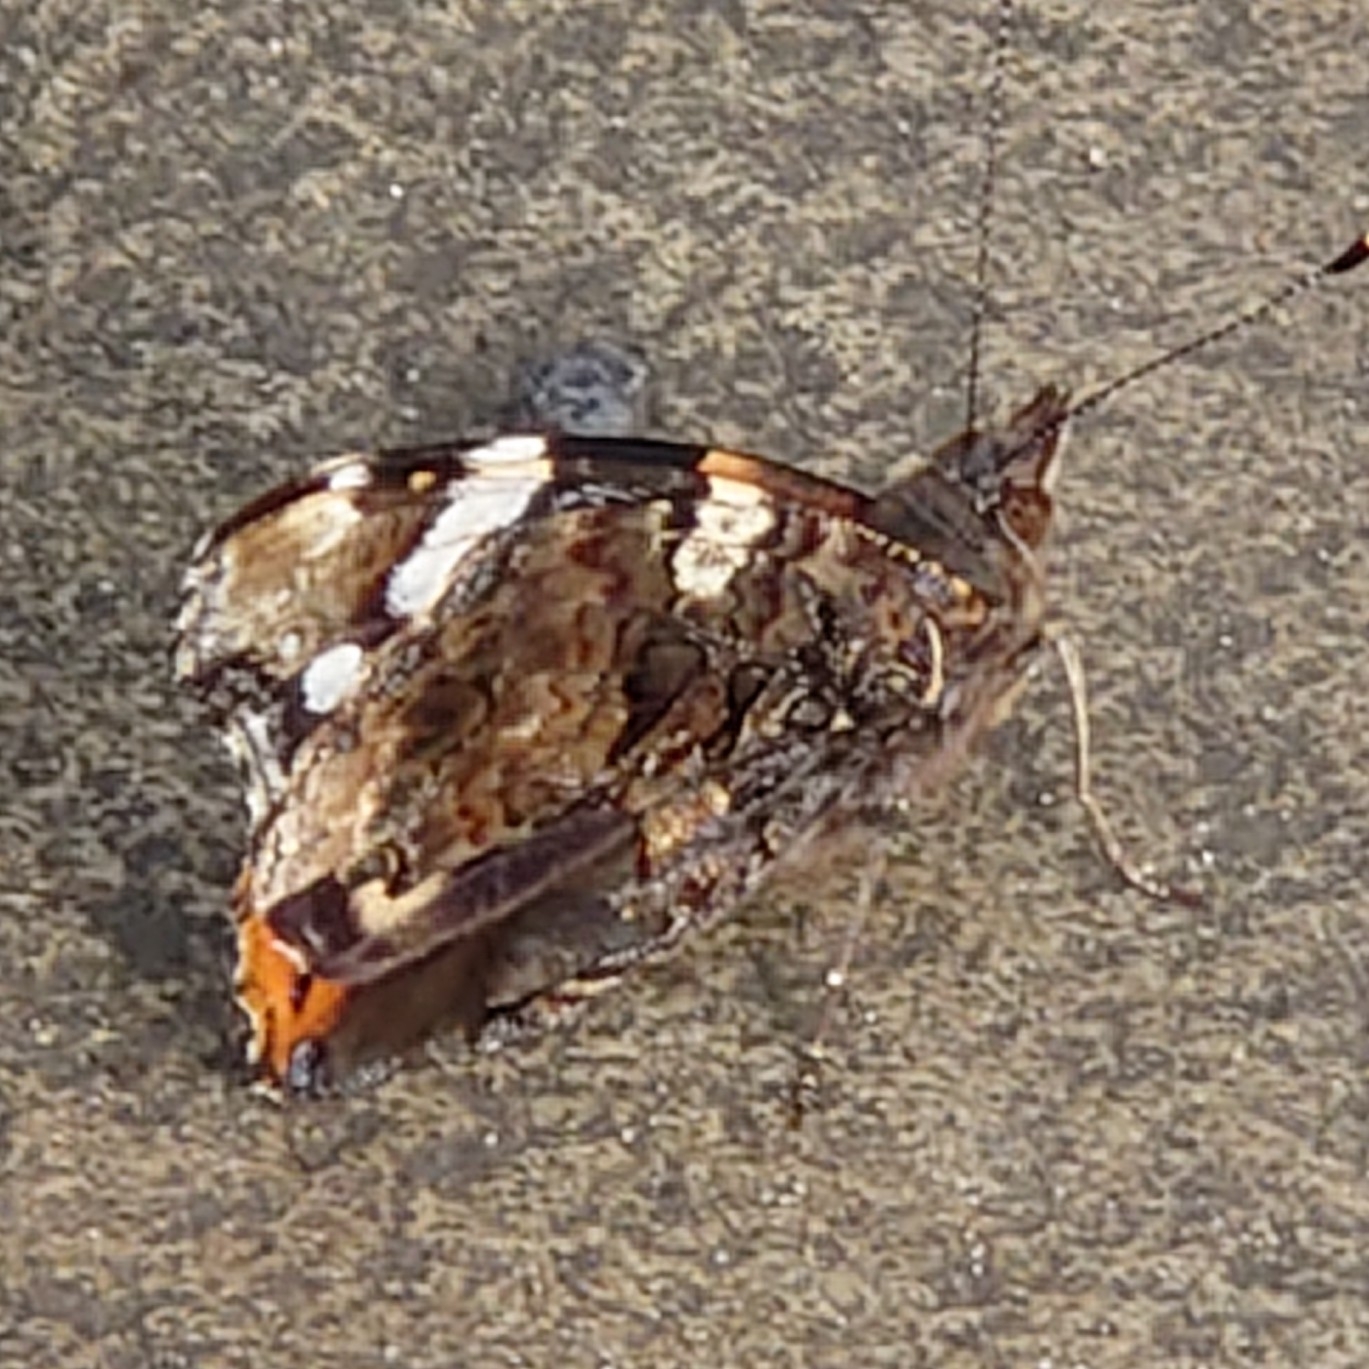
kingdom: Animalia
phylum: Arthropoda
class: Insecta
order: Lepidoptera
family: Nymphalidae
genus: Vanessa
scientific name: Vanessa atalanta
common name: Red admiral
